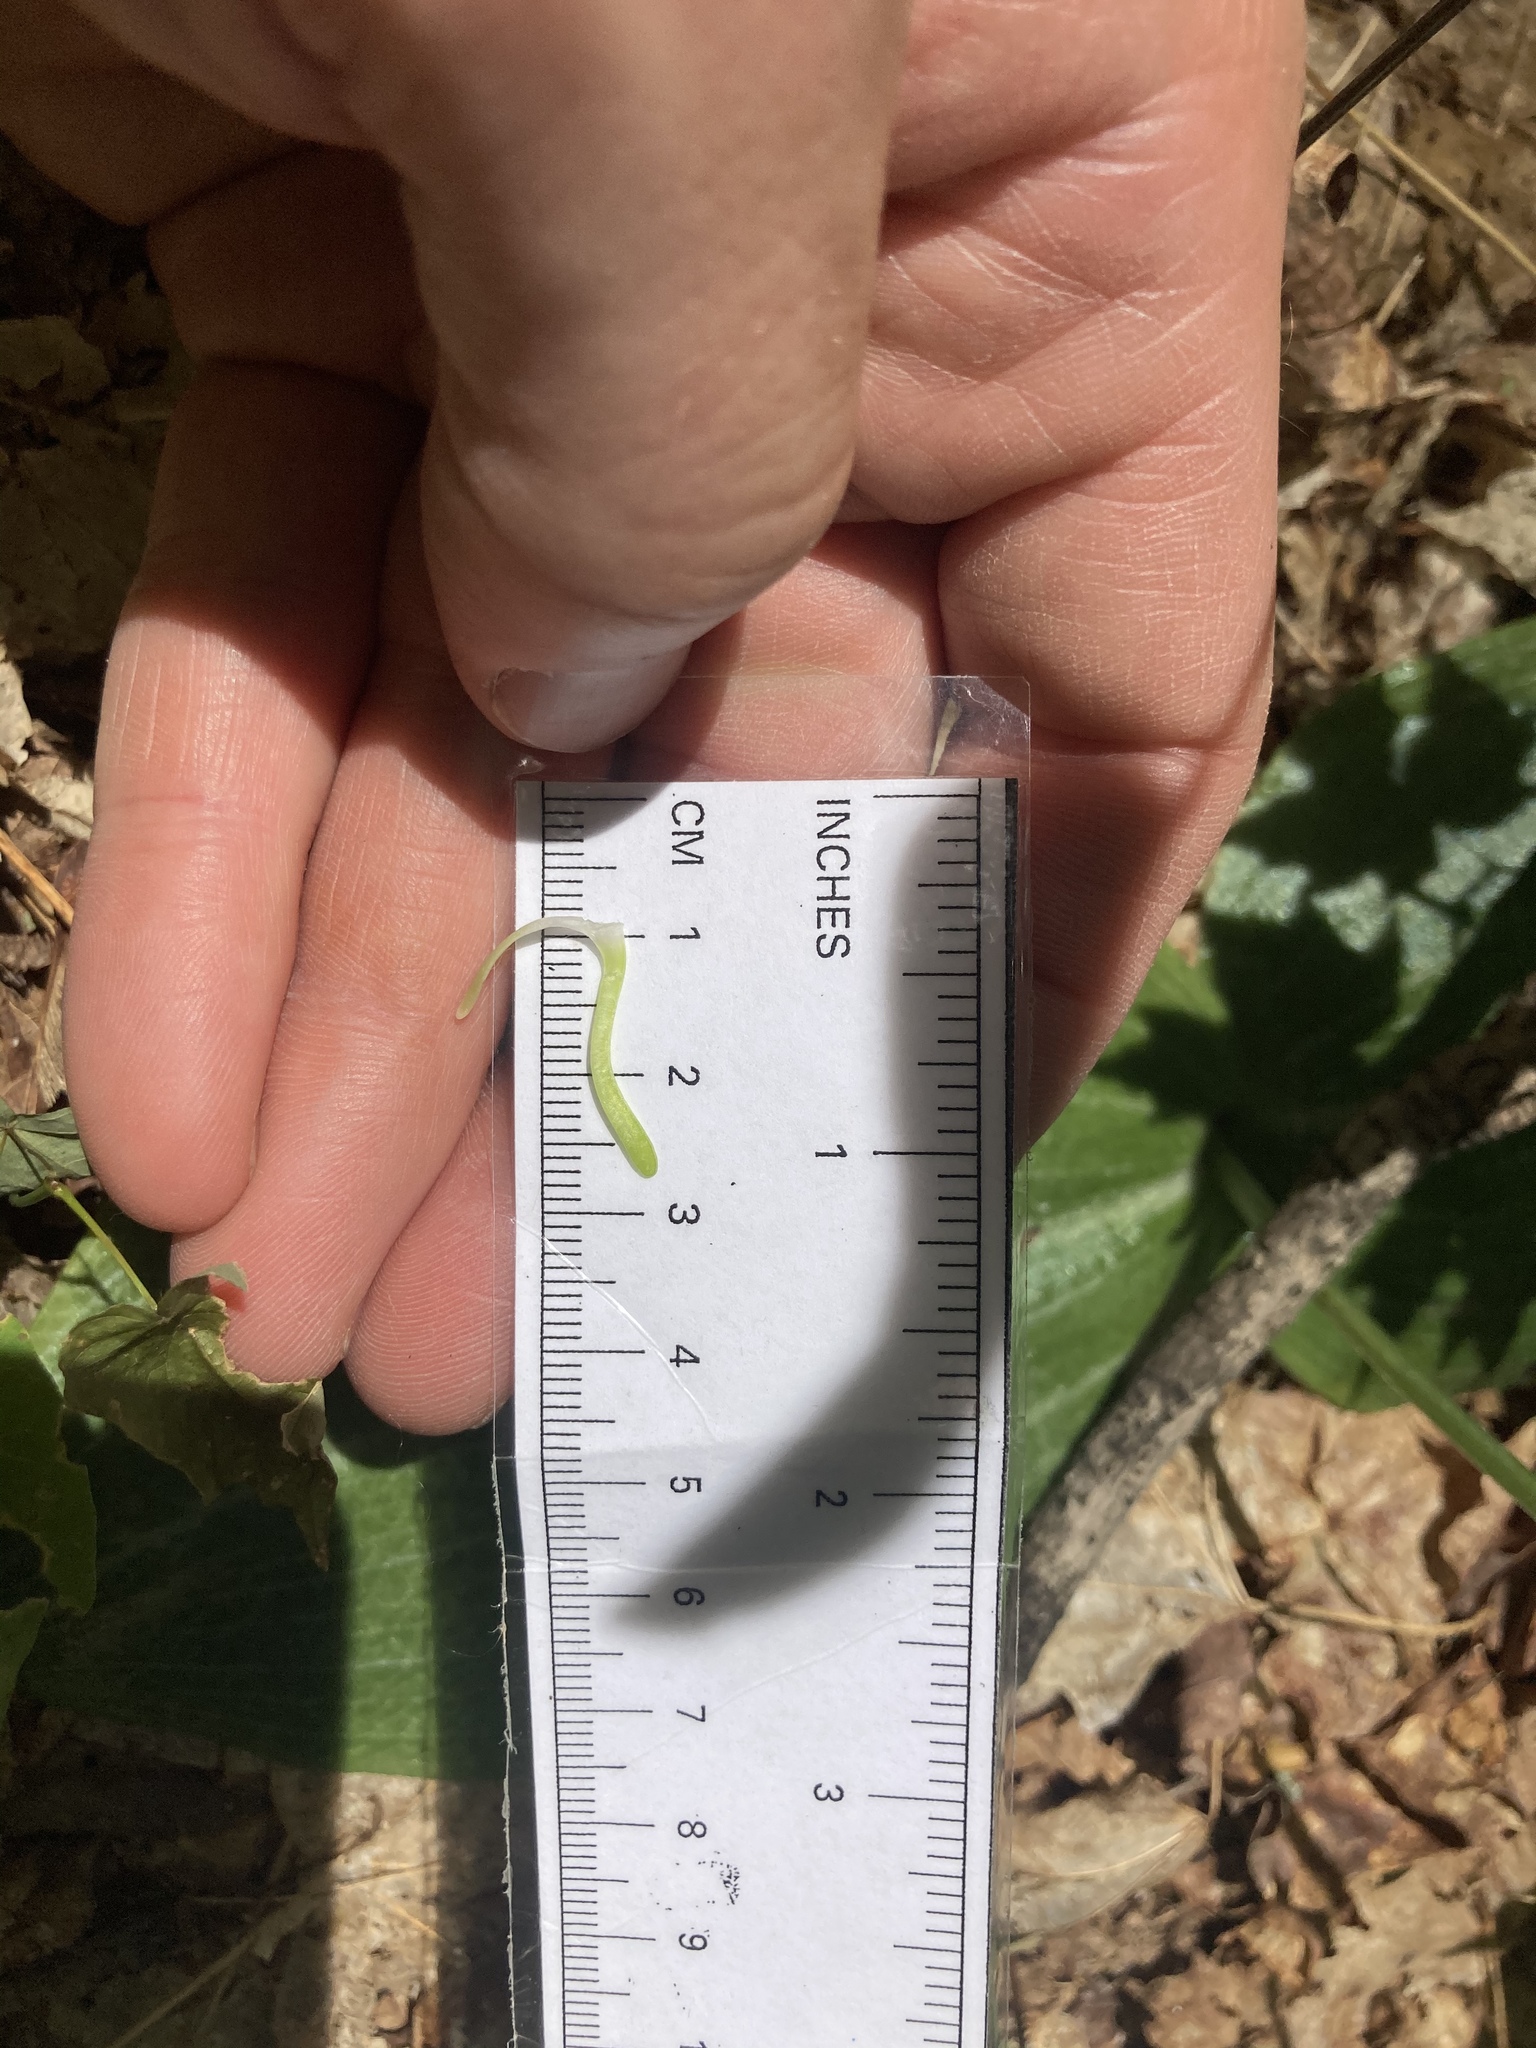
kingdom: Plantae
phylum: Tracheophyta
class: Liliopsida
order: Asparagales
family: Orchidaceae
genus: Platanthera
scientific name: Platanthera orbiculata
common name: Large round-leaved orchid
